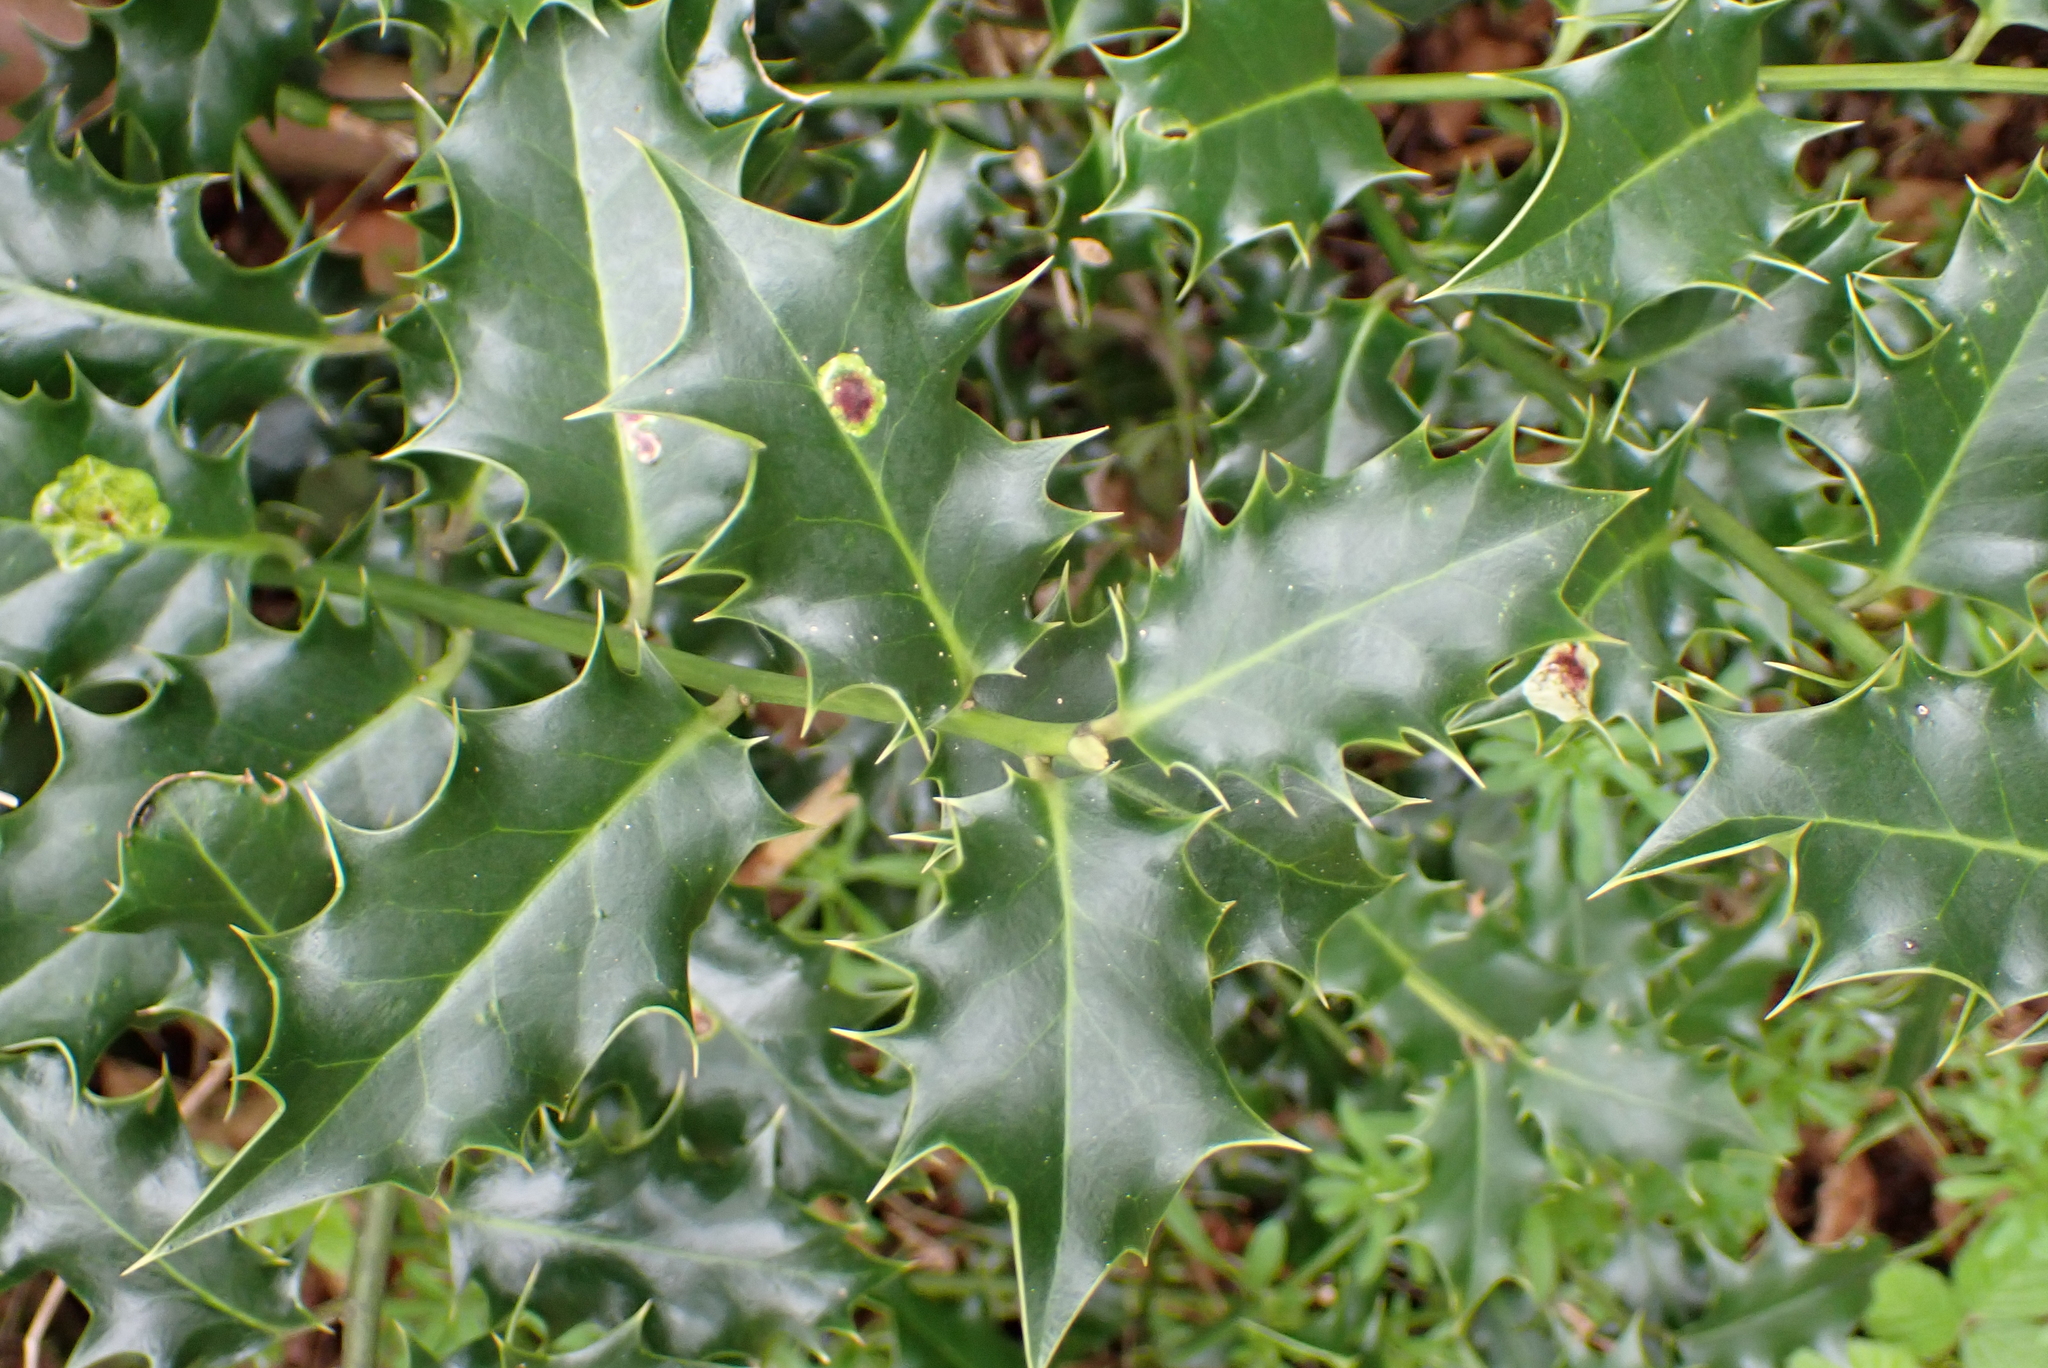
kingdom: Plantae
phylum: Tracheophyta
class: Magnoliopsida
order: Aquifoliales
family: Aquifoliaceae
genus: Ilex
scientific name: Ilex aquifolium
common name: English holly
